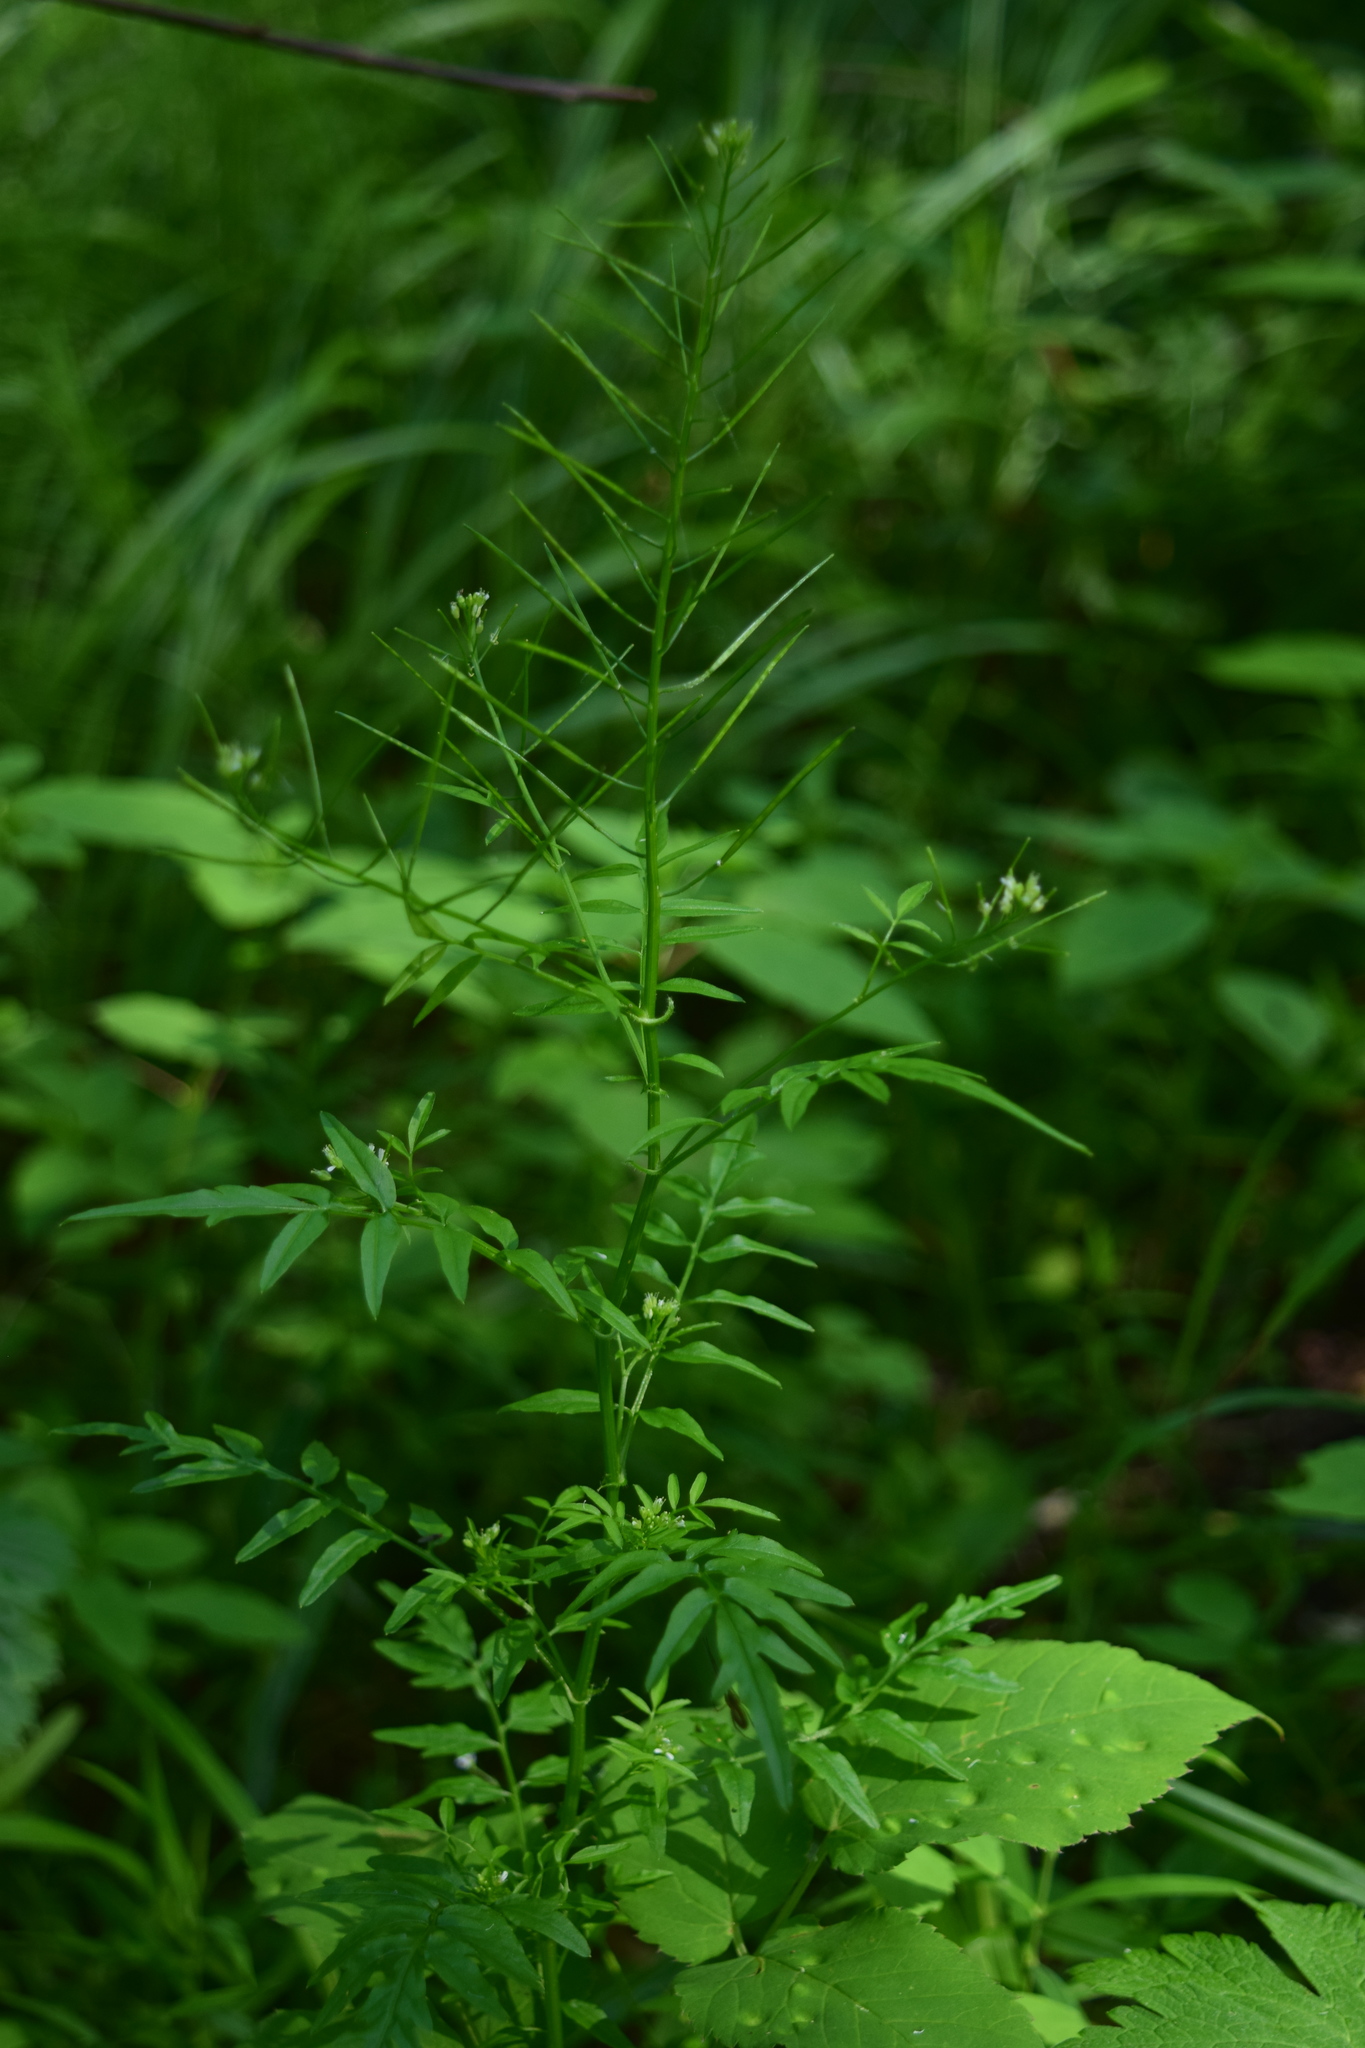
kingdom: Plantae
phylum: Tracheophyta
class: Magnoliopsida
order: Brassicales
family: Brassicaceae
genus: Cardamine
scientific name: Cardamine impatiens
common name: Narrow-leaved bitter-cress
